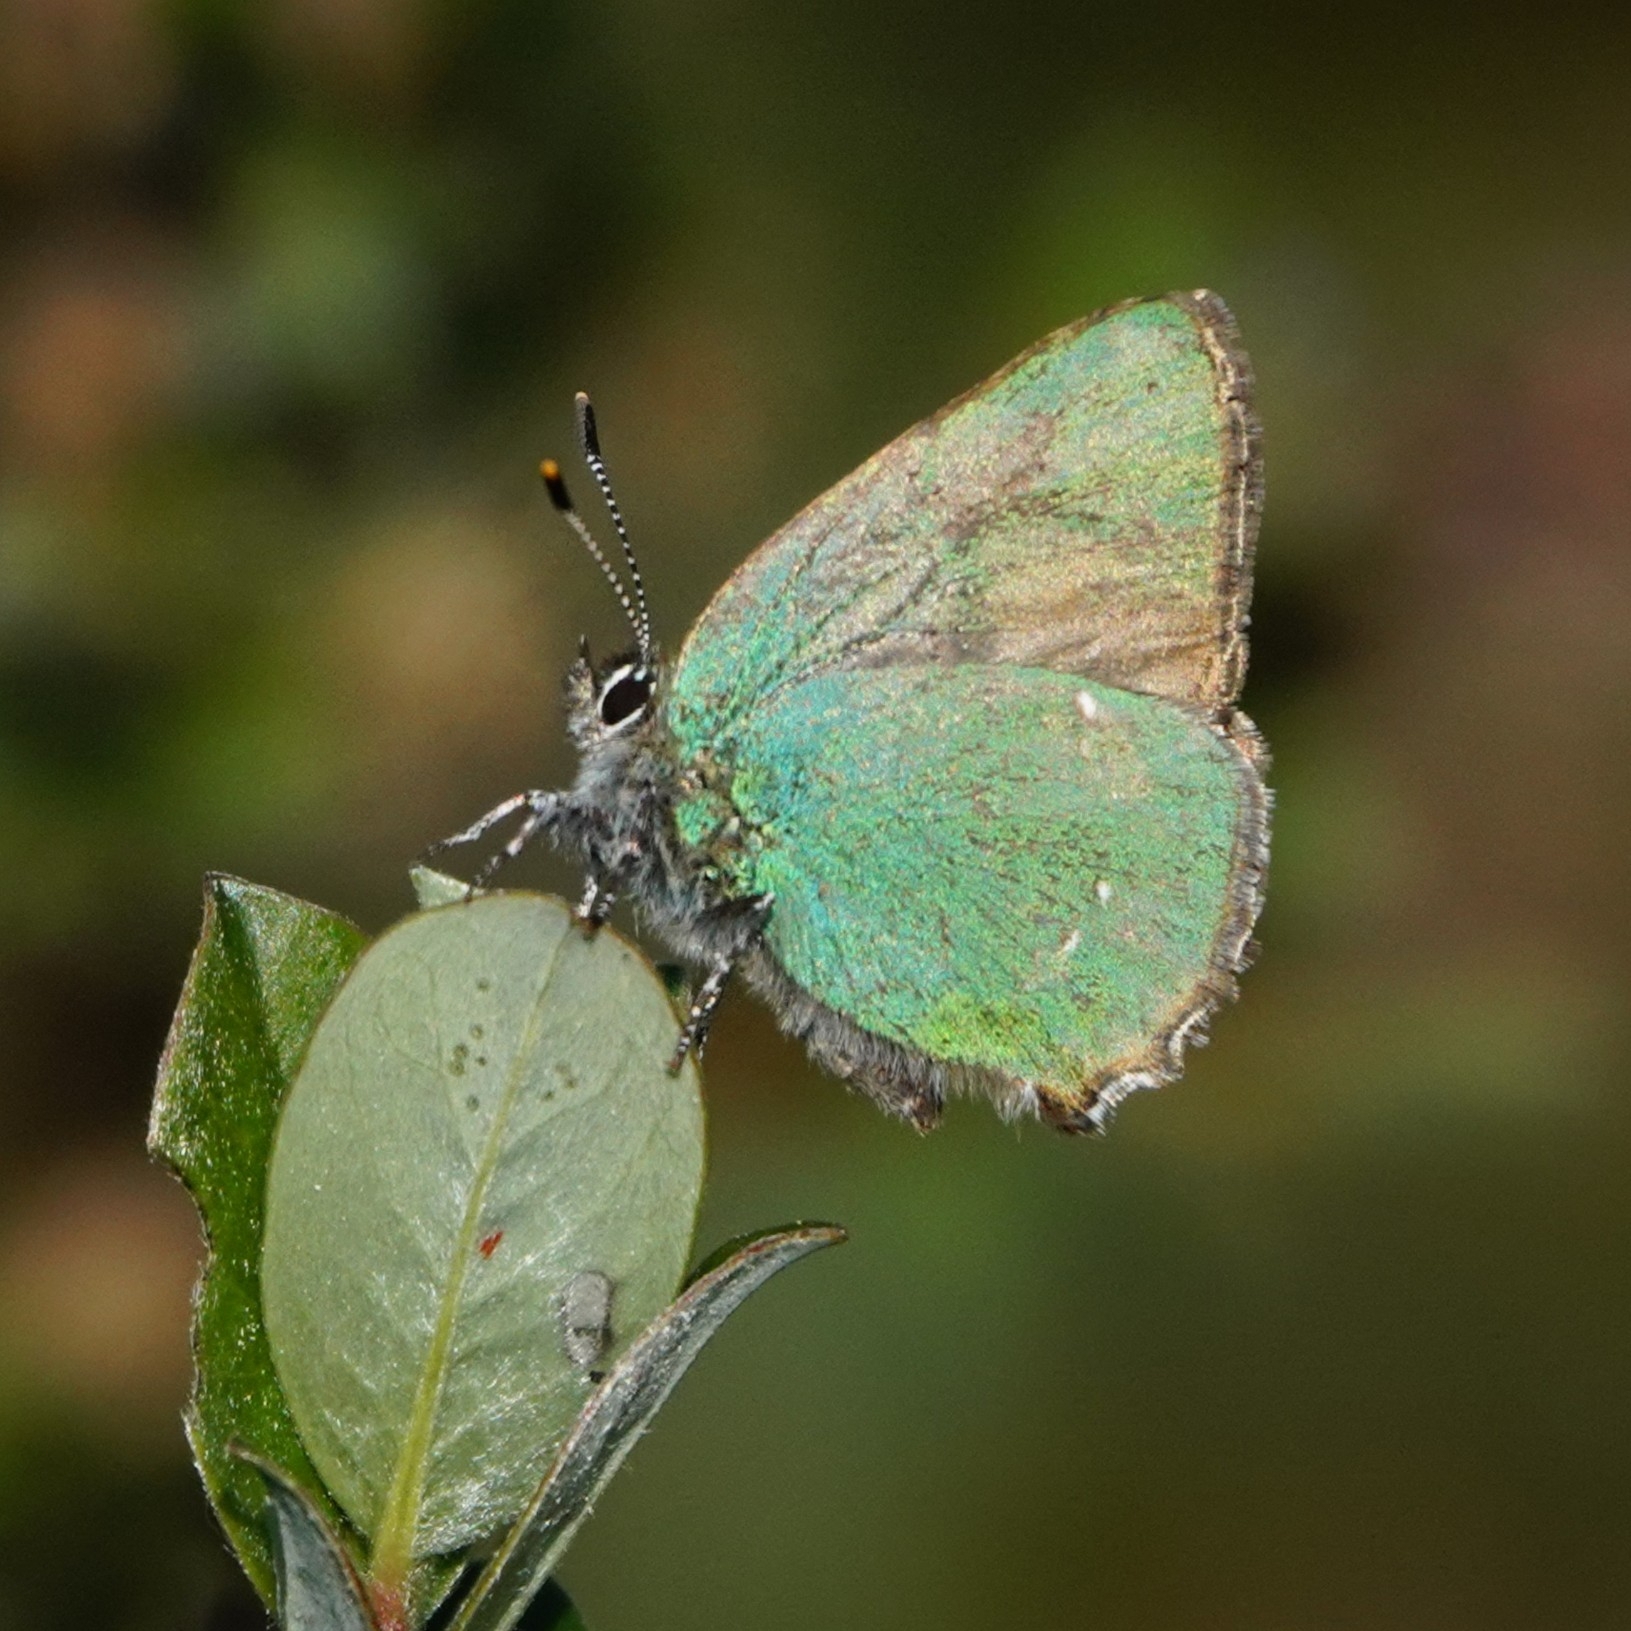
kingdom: Animalia
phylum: Arthropoda
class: Insecta
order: Lepidoptera
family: Lycaenidae
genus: Callophrys
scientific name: Callophrys rubi
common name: Green hairstreak
